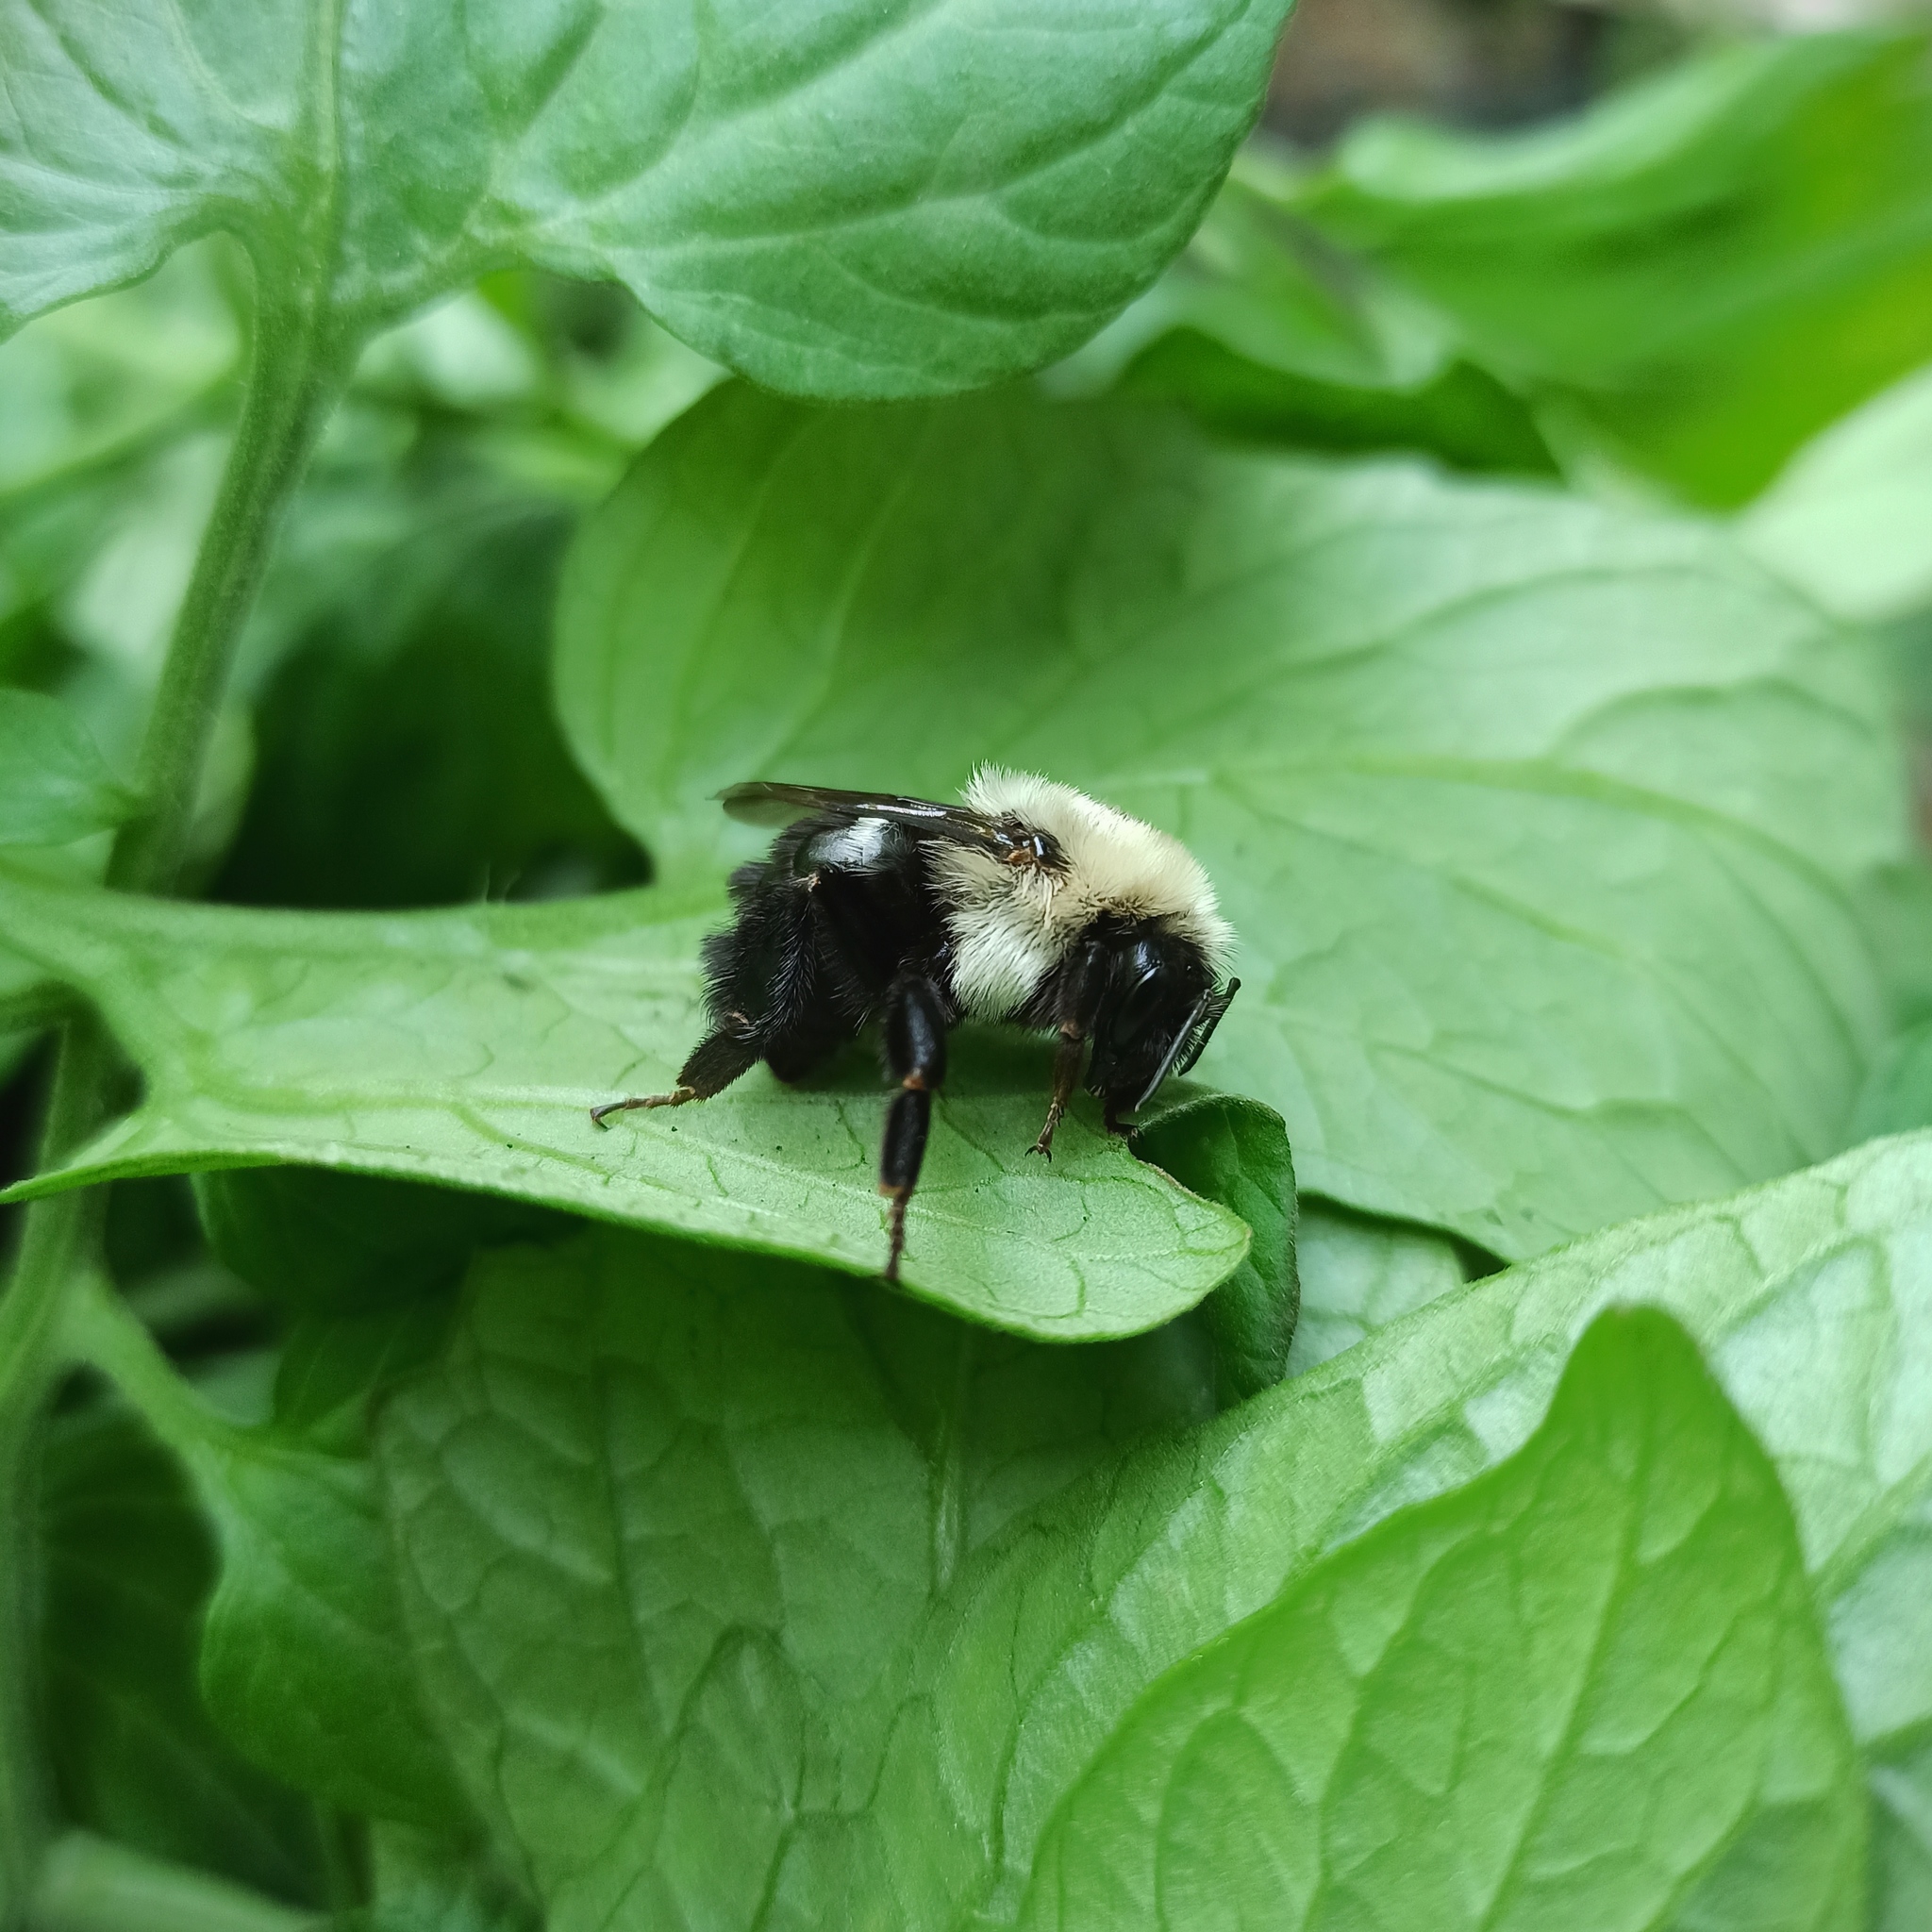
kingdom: Animalia
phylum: Arthropoda
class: Insecta
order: Hymenoptera
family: Apidae
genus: Bombus
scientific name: Bombus impatiens
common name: Common eastern bumble bee
